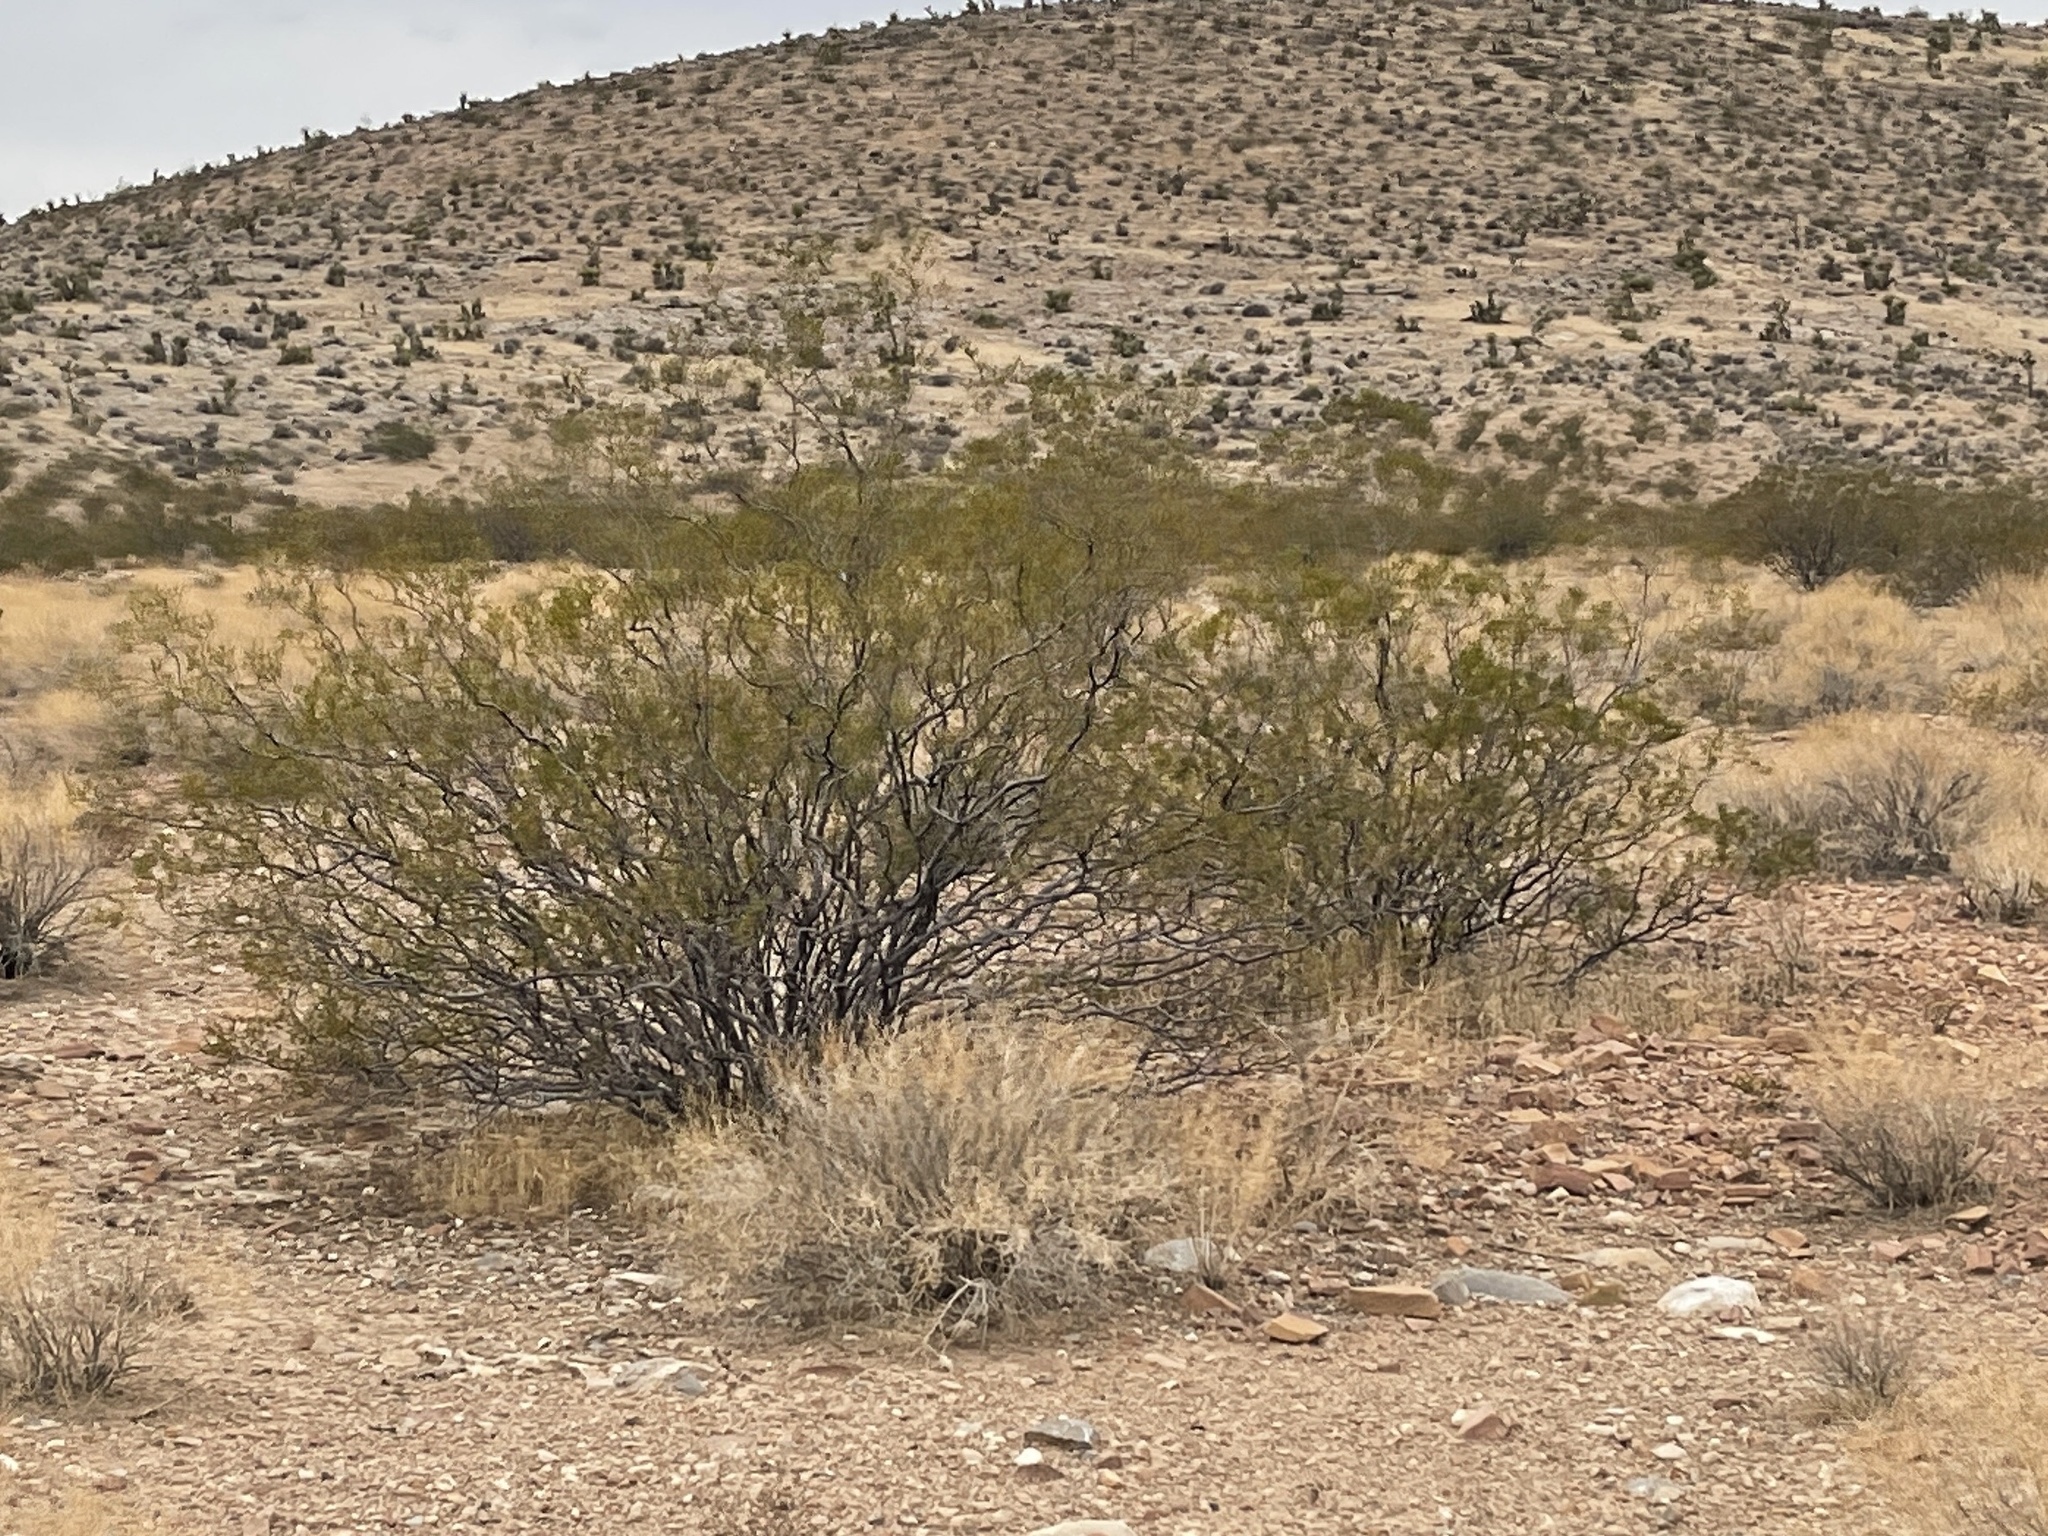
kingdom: Plantae
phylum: Tracheophyta
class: Magnoliopsida
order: Zygophyllales
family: Zygophyllaceae
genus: Larrea
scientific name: Larrea tridentata
